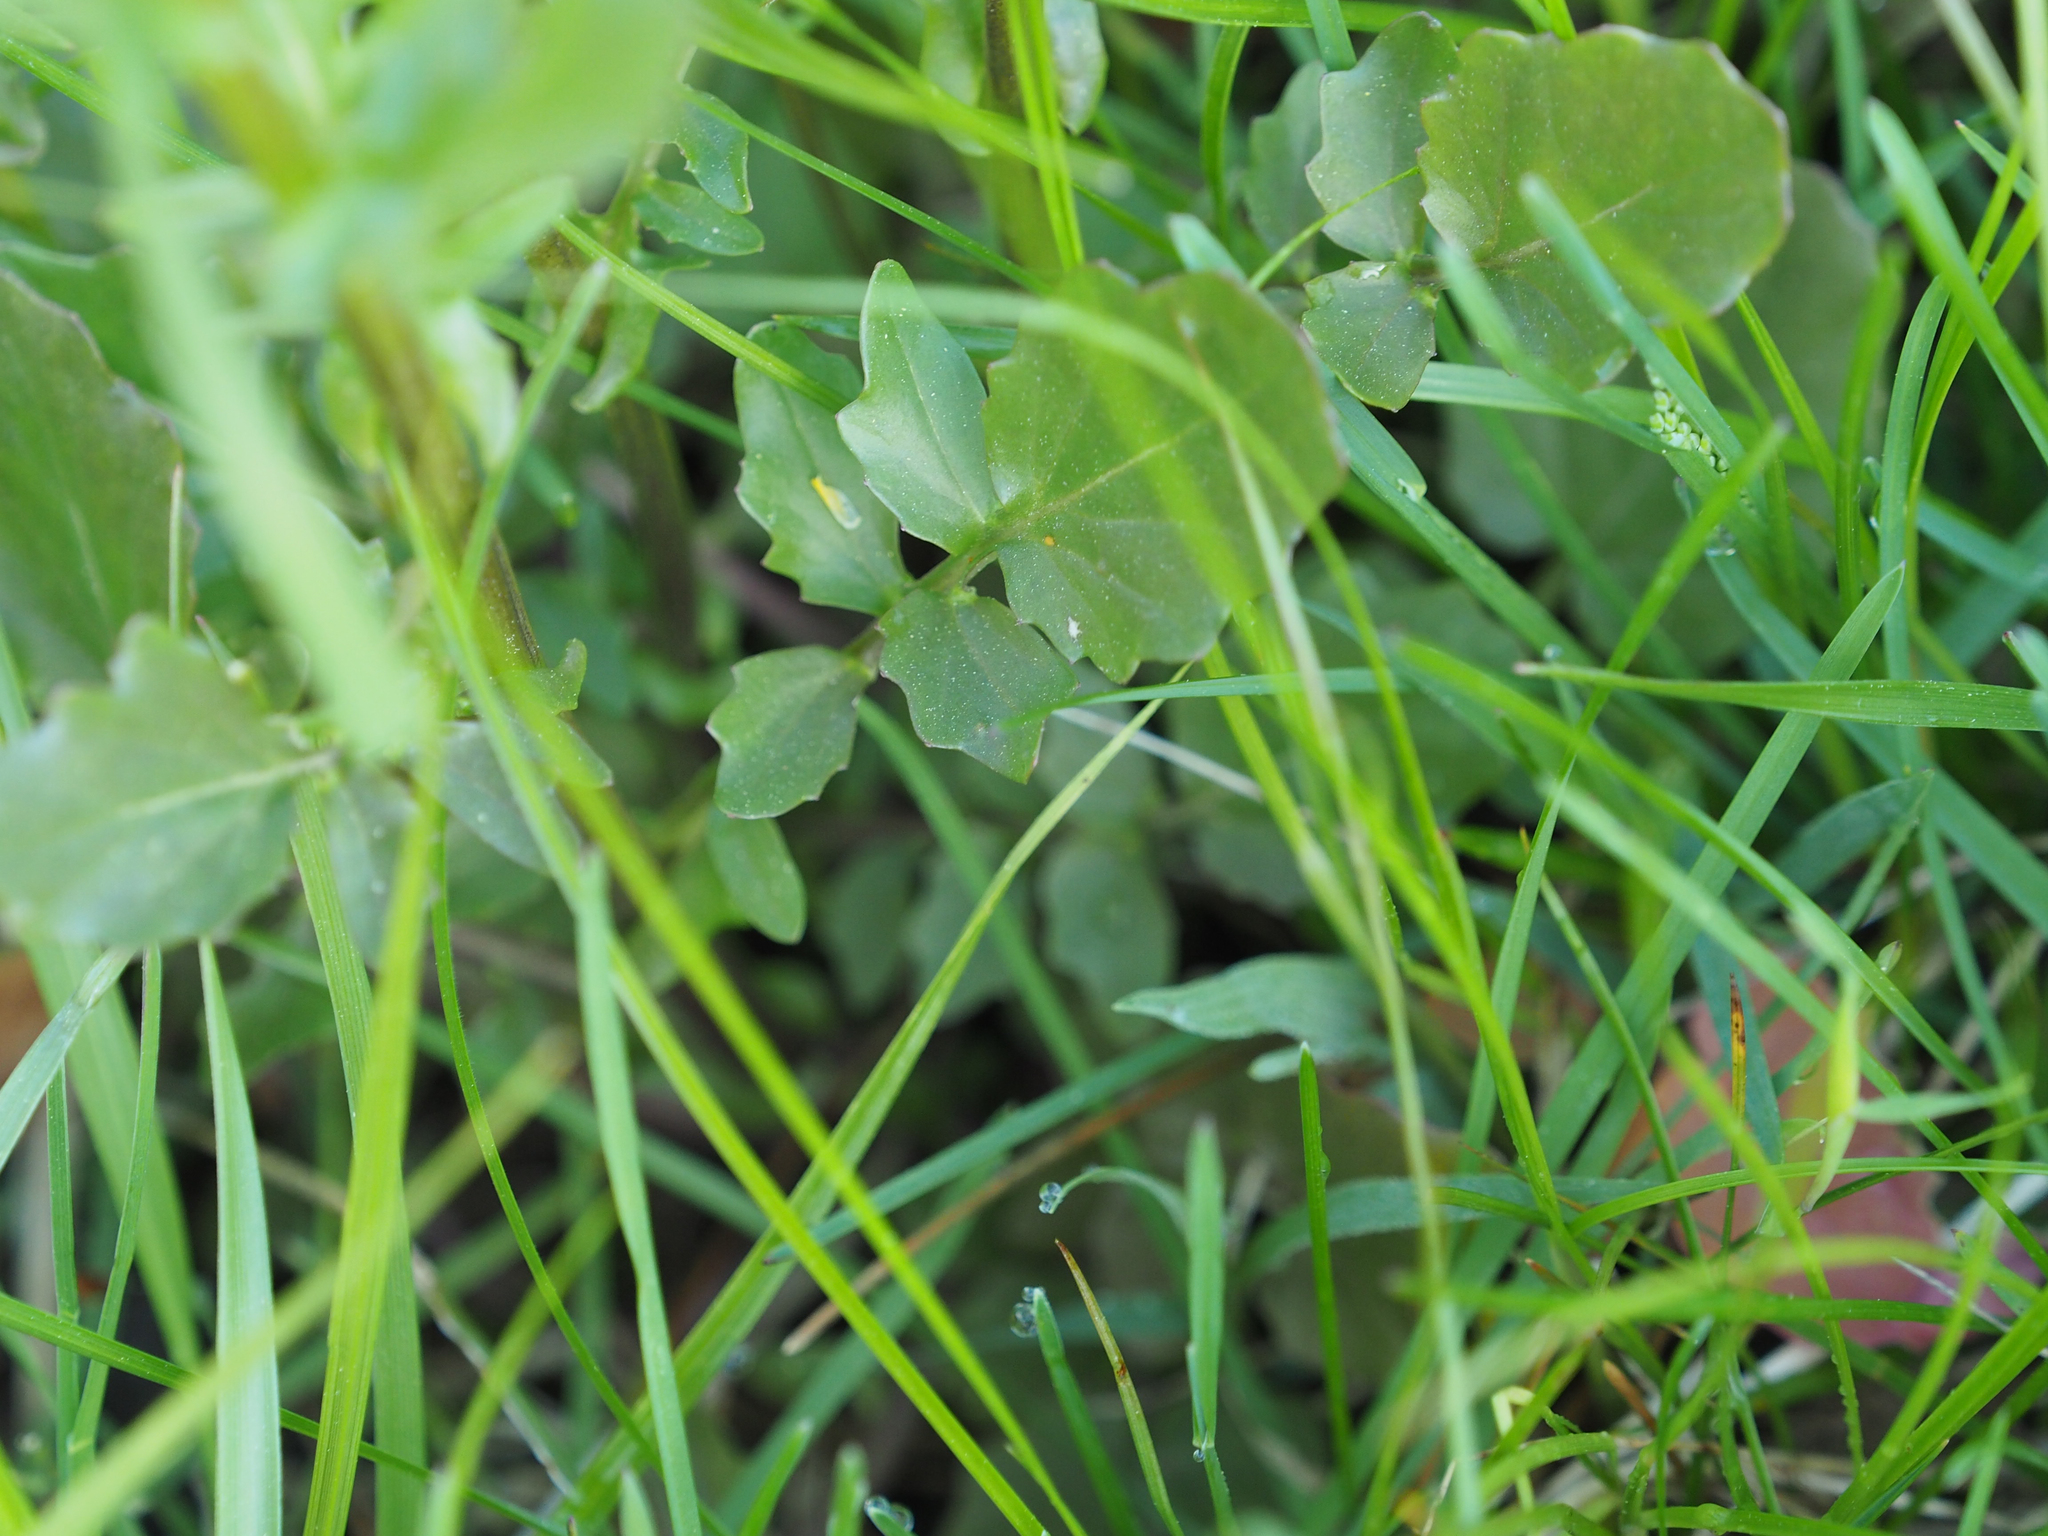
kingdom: Plantae
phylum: Tracheophyta
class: Magnoliopsida
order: Brassicales
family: Brassicaceae
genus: Barbarea
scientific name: Barbarea vulgaris
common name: Cressy-greens
